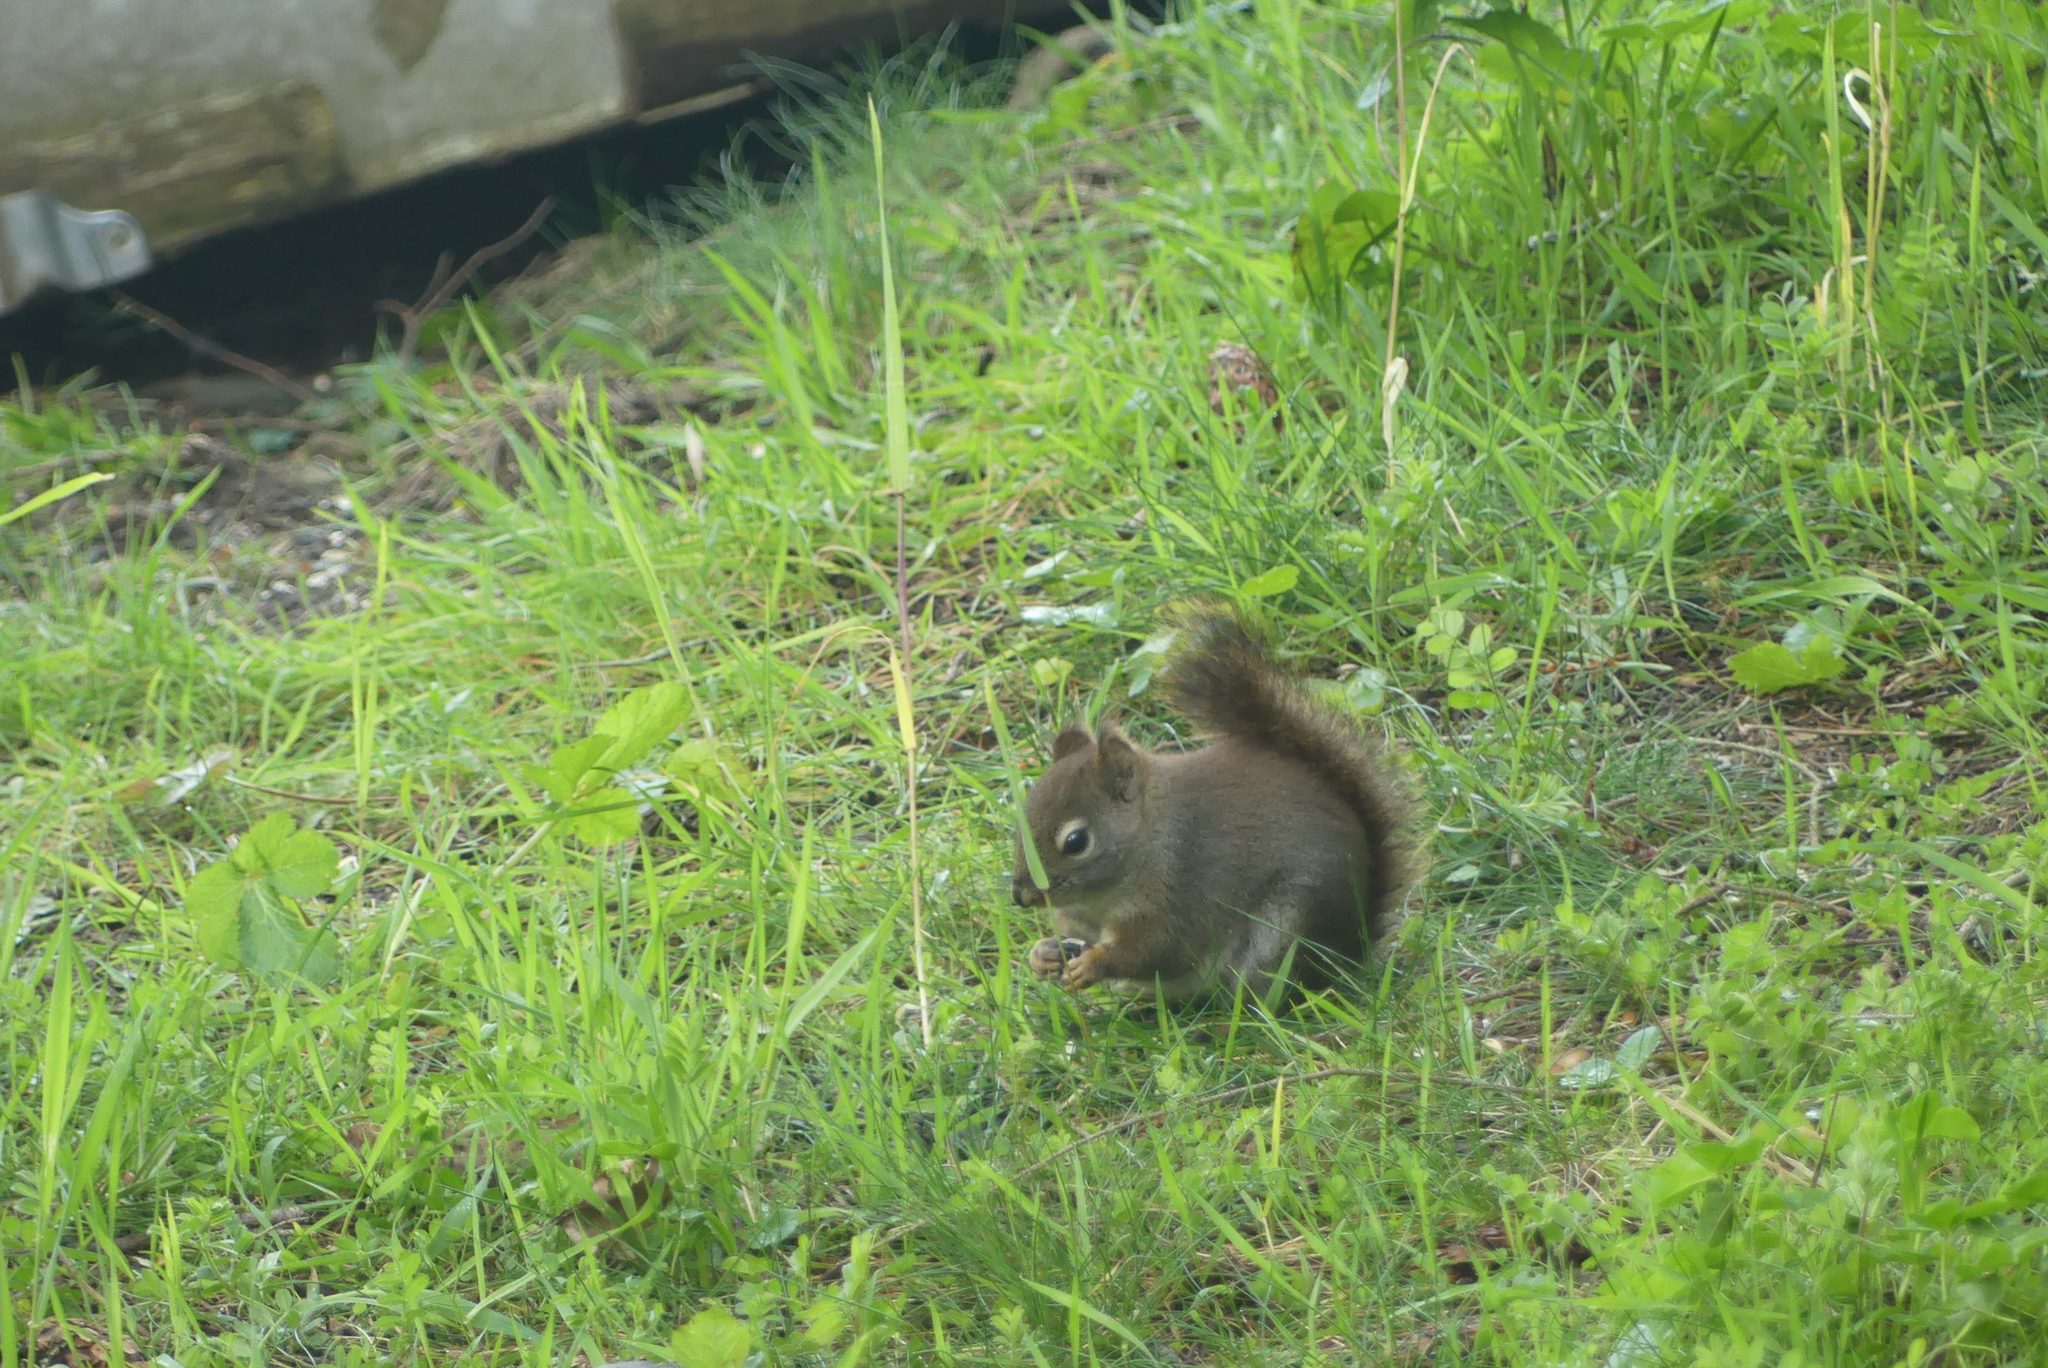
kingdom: Animalia
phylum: Chordata
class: Mammalia
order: Rodentia
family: Sciuridae
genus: Tamiasciurus
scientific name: Tamiasciurus hudsonicus
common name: Red squirrel
